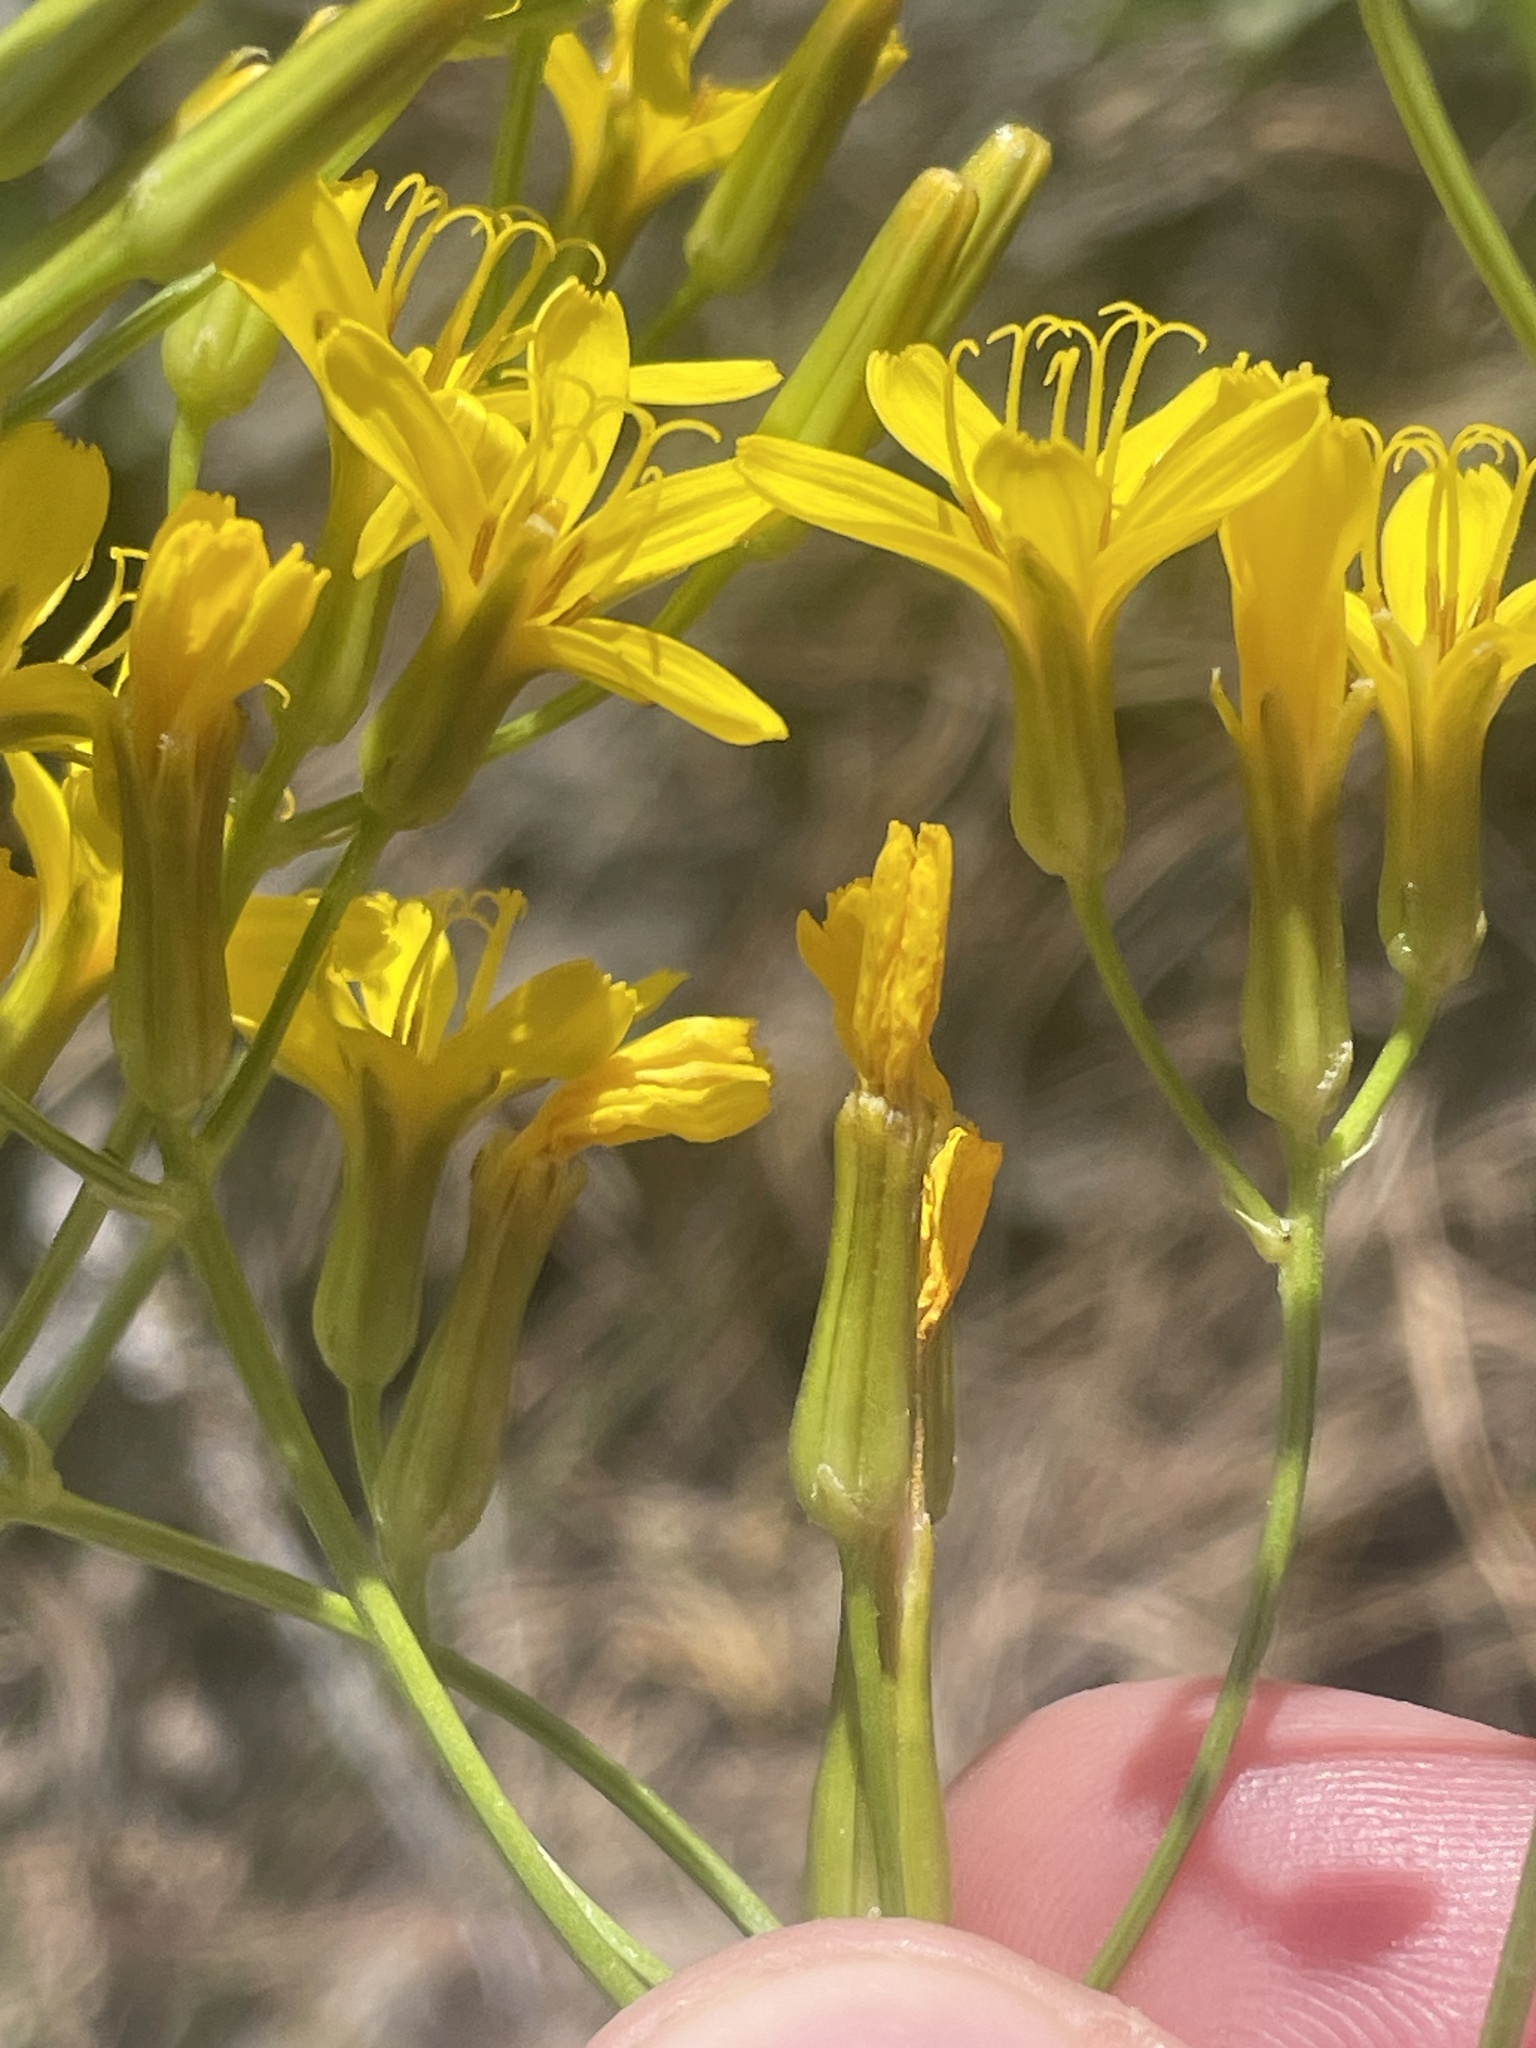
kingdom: Plantae
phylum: Tracheophyta
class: Magnoliopsida
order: Asterales
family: Asteraceae
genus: Crepis
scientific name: Crepis acuminata
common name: Longleaf hawk's-beard
